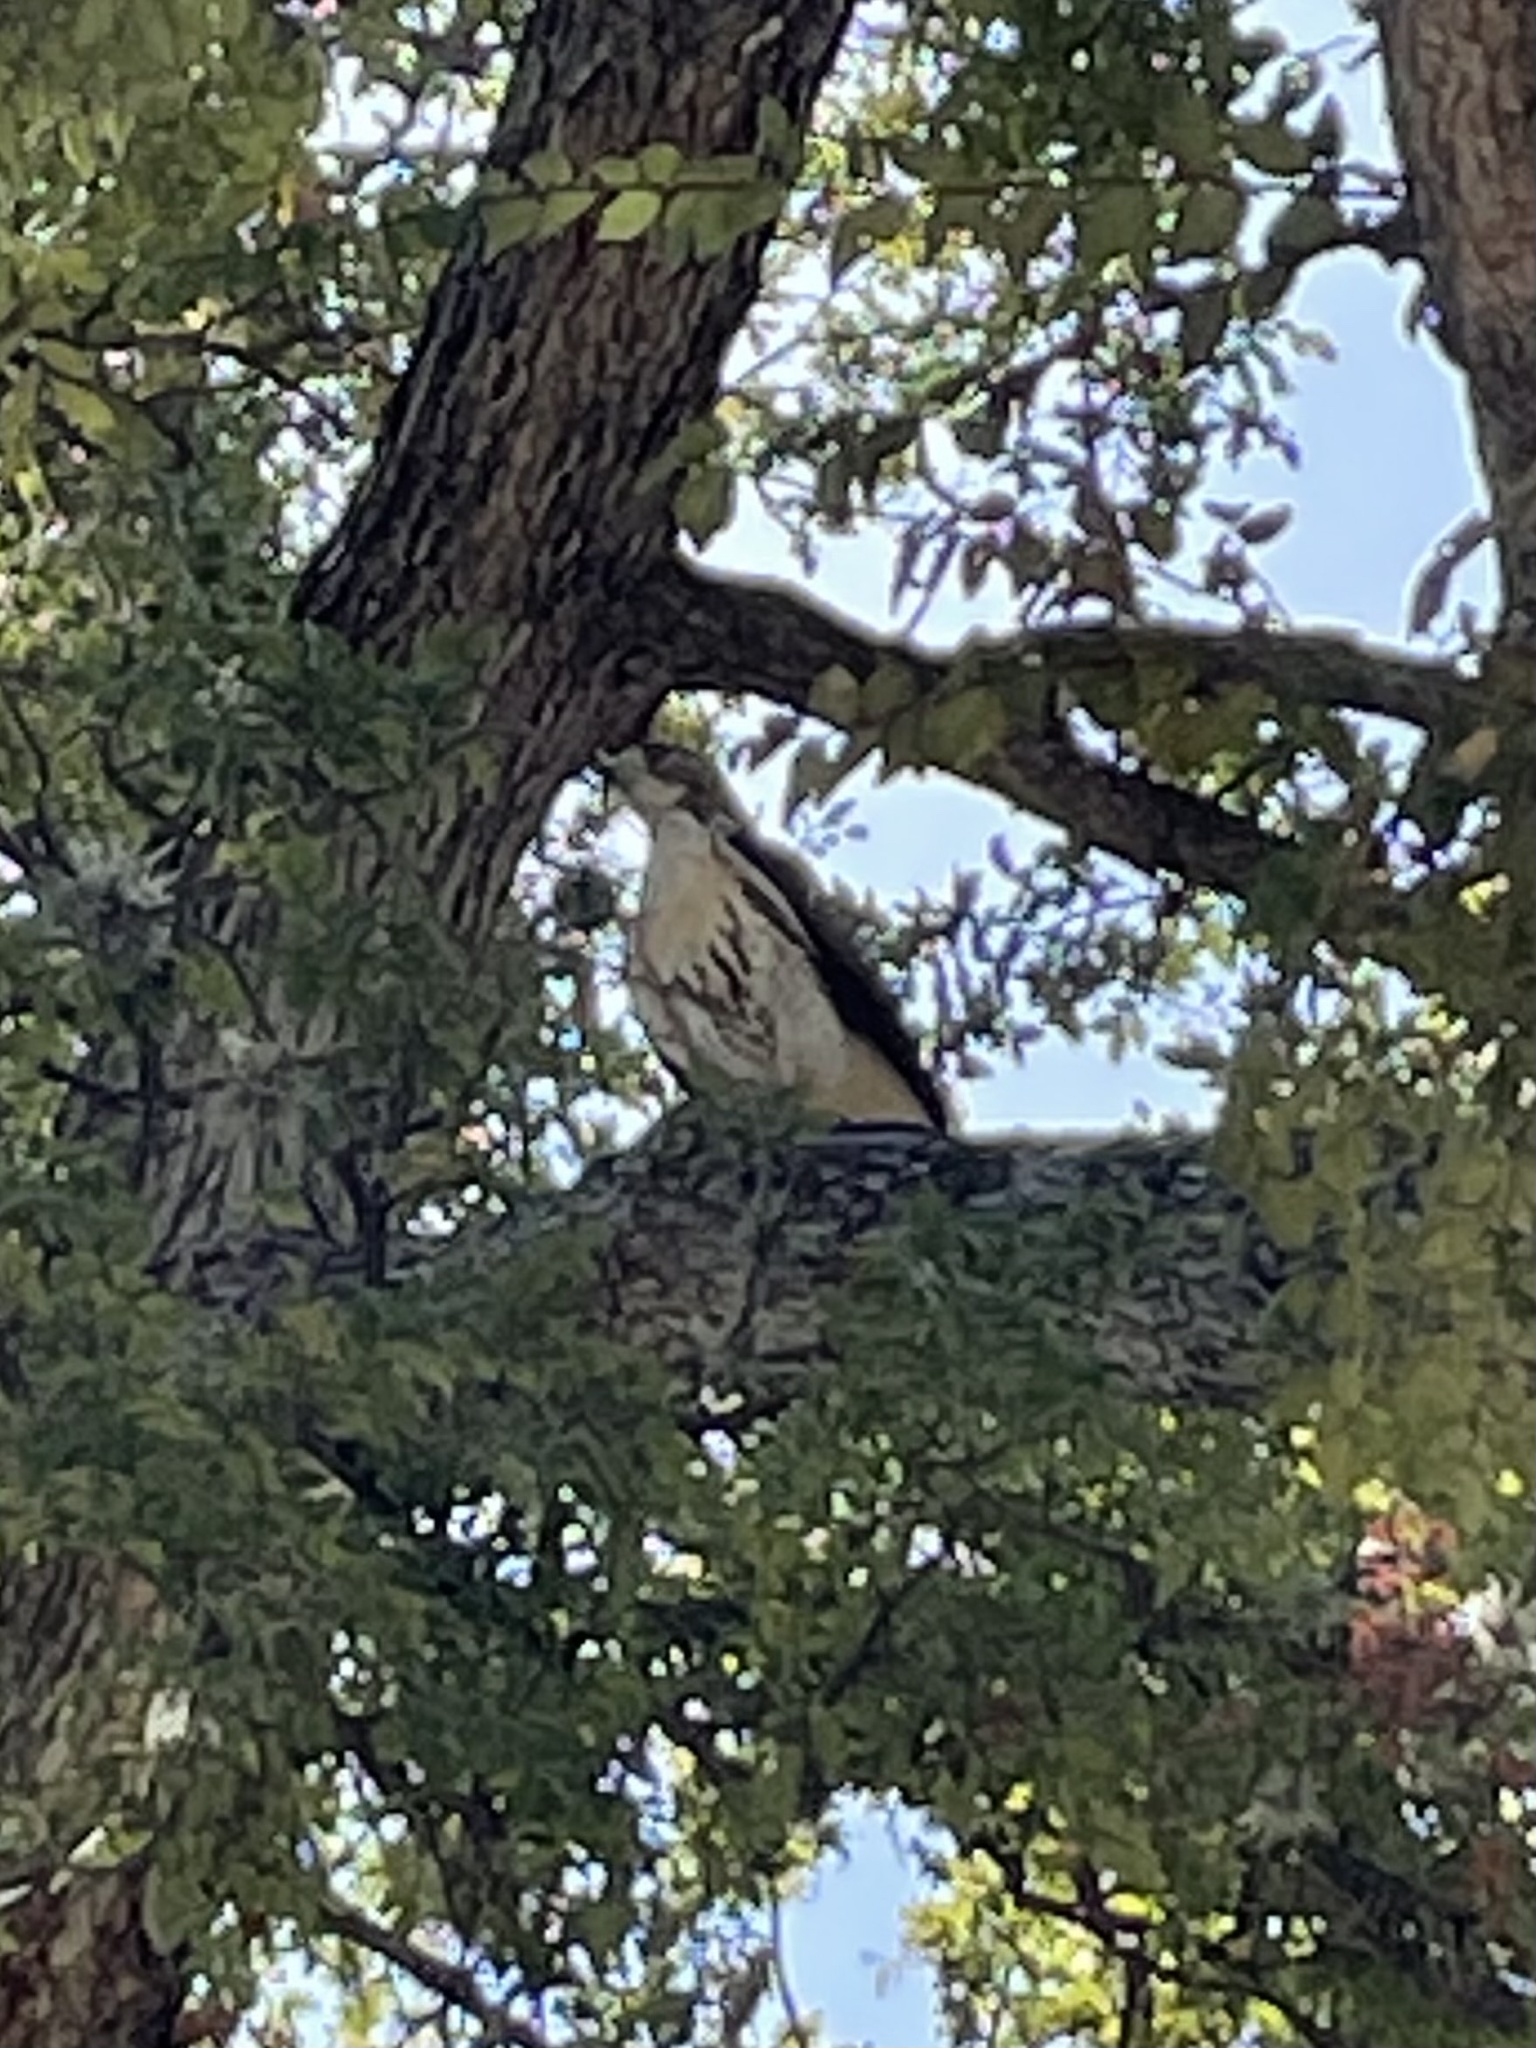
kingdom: Animalia
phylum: Chordata
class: Aves
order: Accipitriformes
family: Accipitridae
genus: Buteo
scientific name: Buteo jamaicensis
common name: Red-tailed hawk
